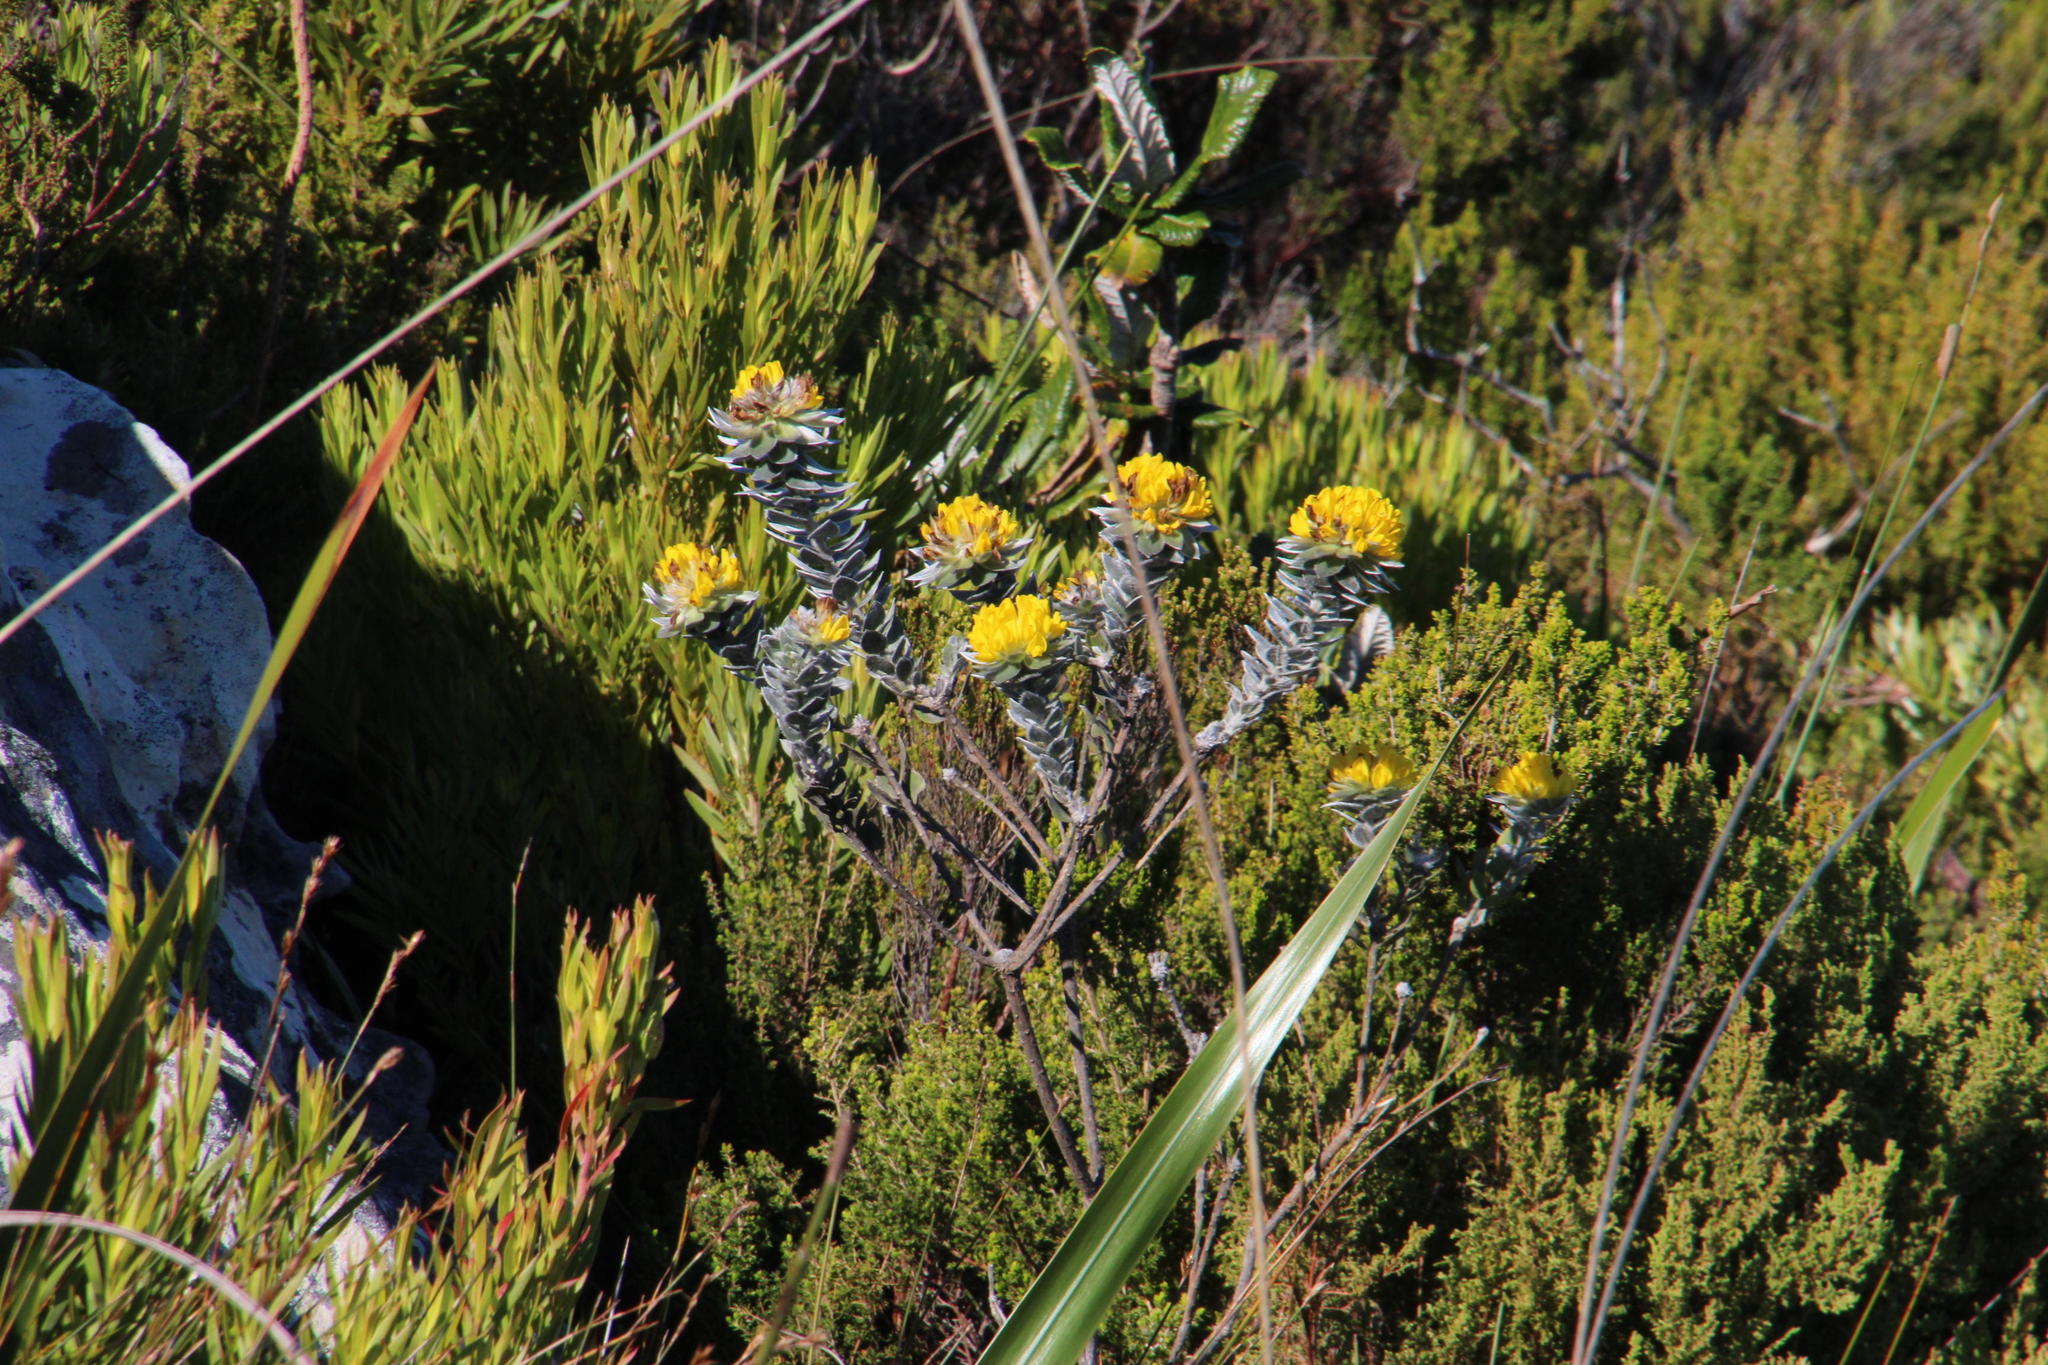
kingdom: Plantae
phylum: Tracheophyta
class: Magnoliopsida
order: Fabales
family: Fabaceae
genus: Xiphotheca
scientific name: Xiphotheca fruticosa
